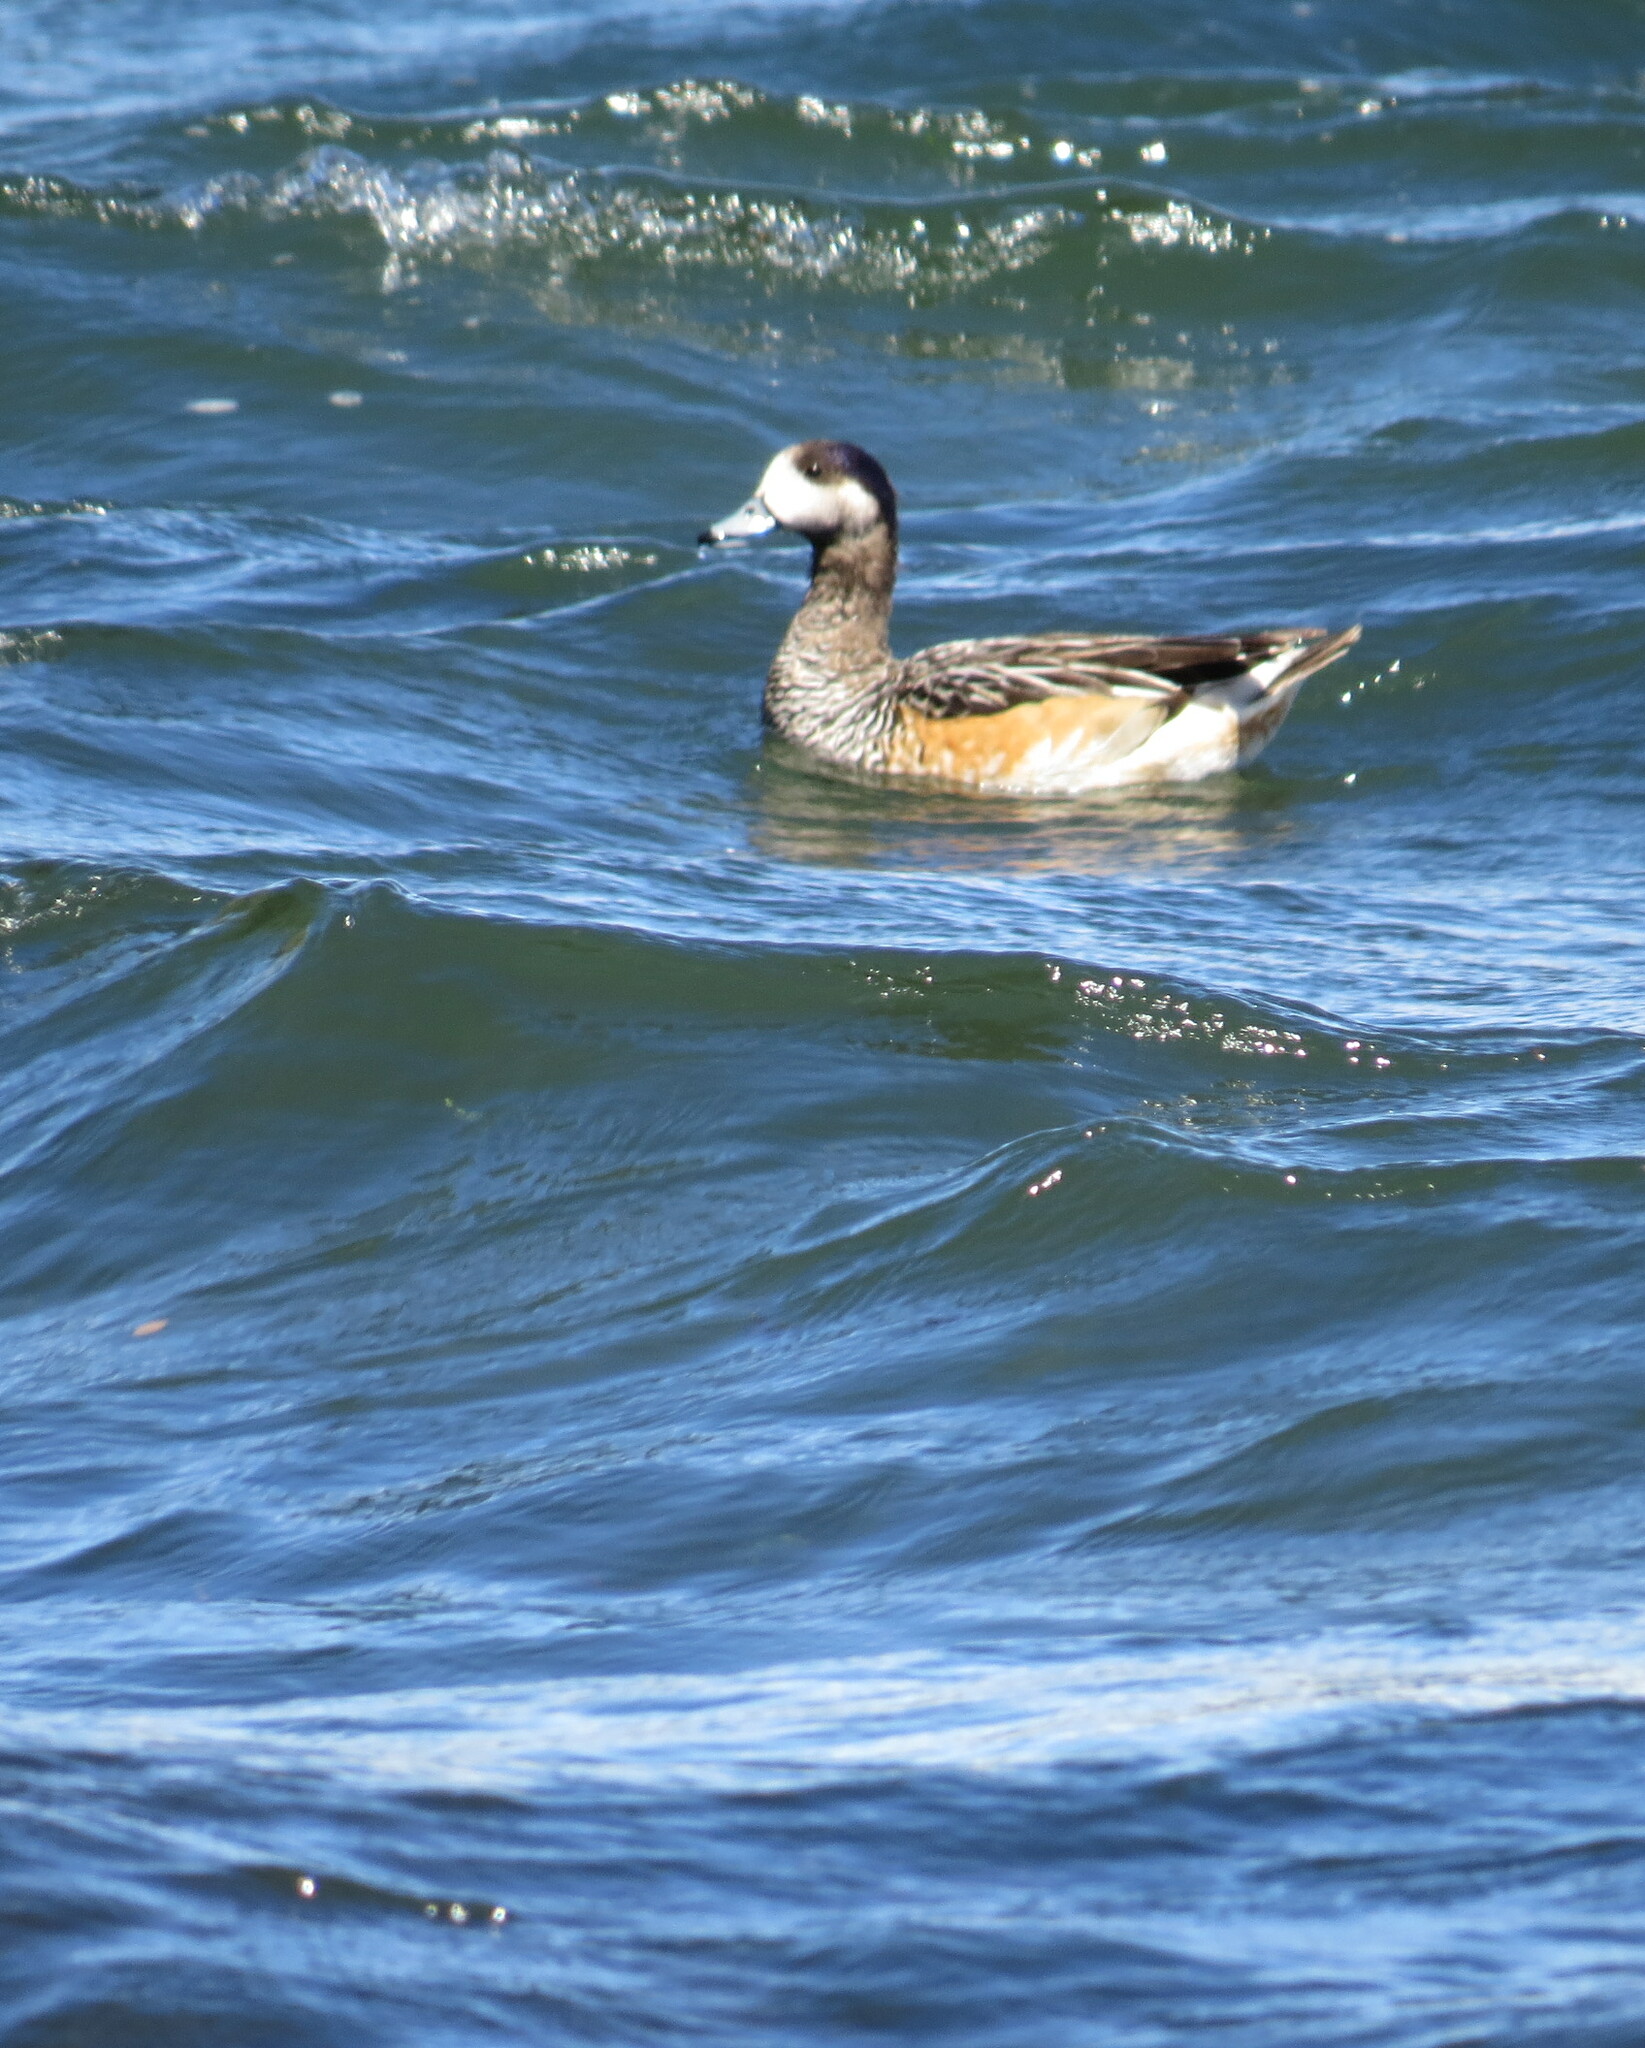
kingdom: Animalia
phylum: Chordata
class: Aves
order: Anseriformes
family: Anatidae
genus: Mareca
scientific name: Mareca sibilatrix
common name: Chiloe wigeon
